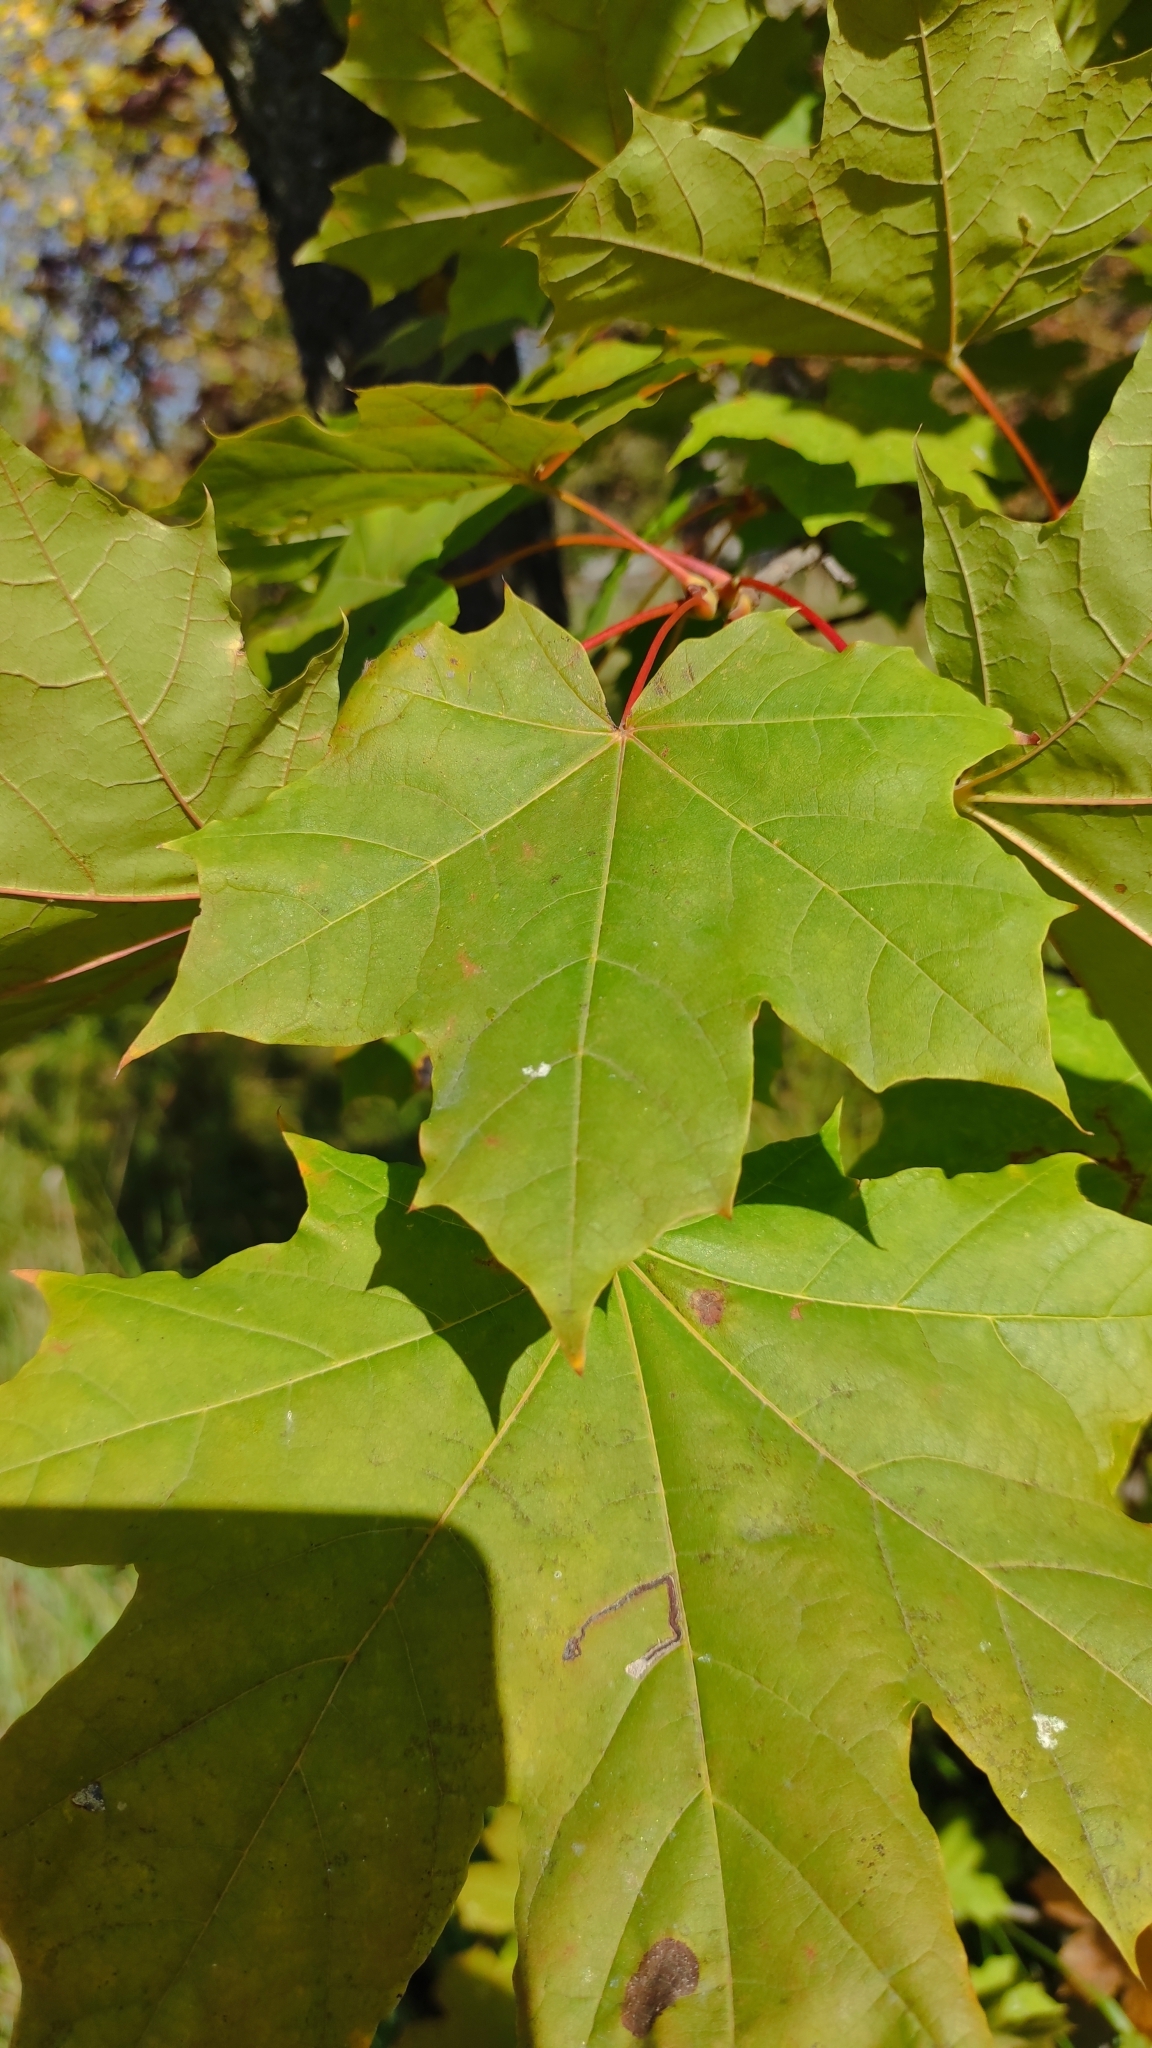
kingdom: Plantae
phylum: Tracheophyta
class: Magnoliopsida
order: Sapindales
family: Sapindaceae
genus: Acer
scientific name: Acer platanoides
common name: Norway maple
